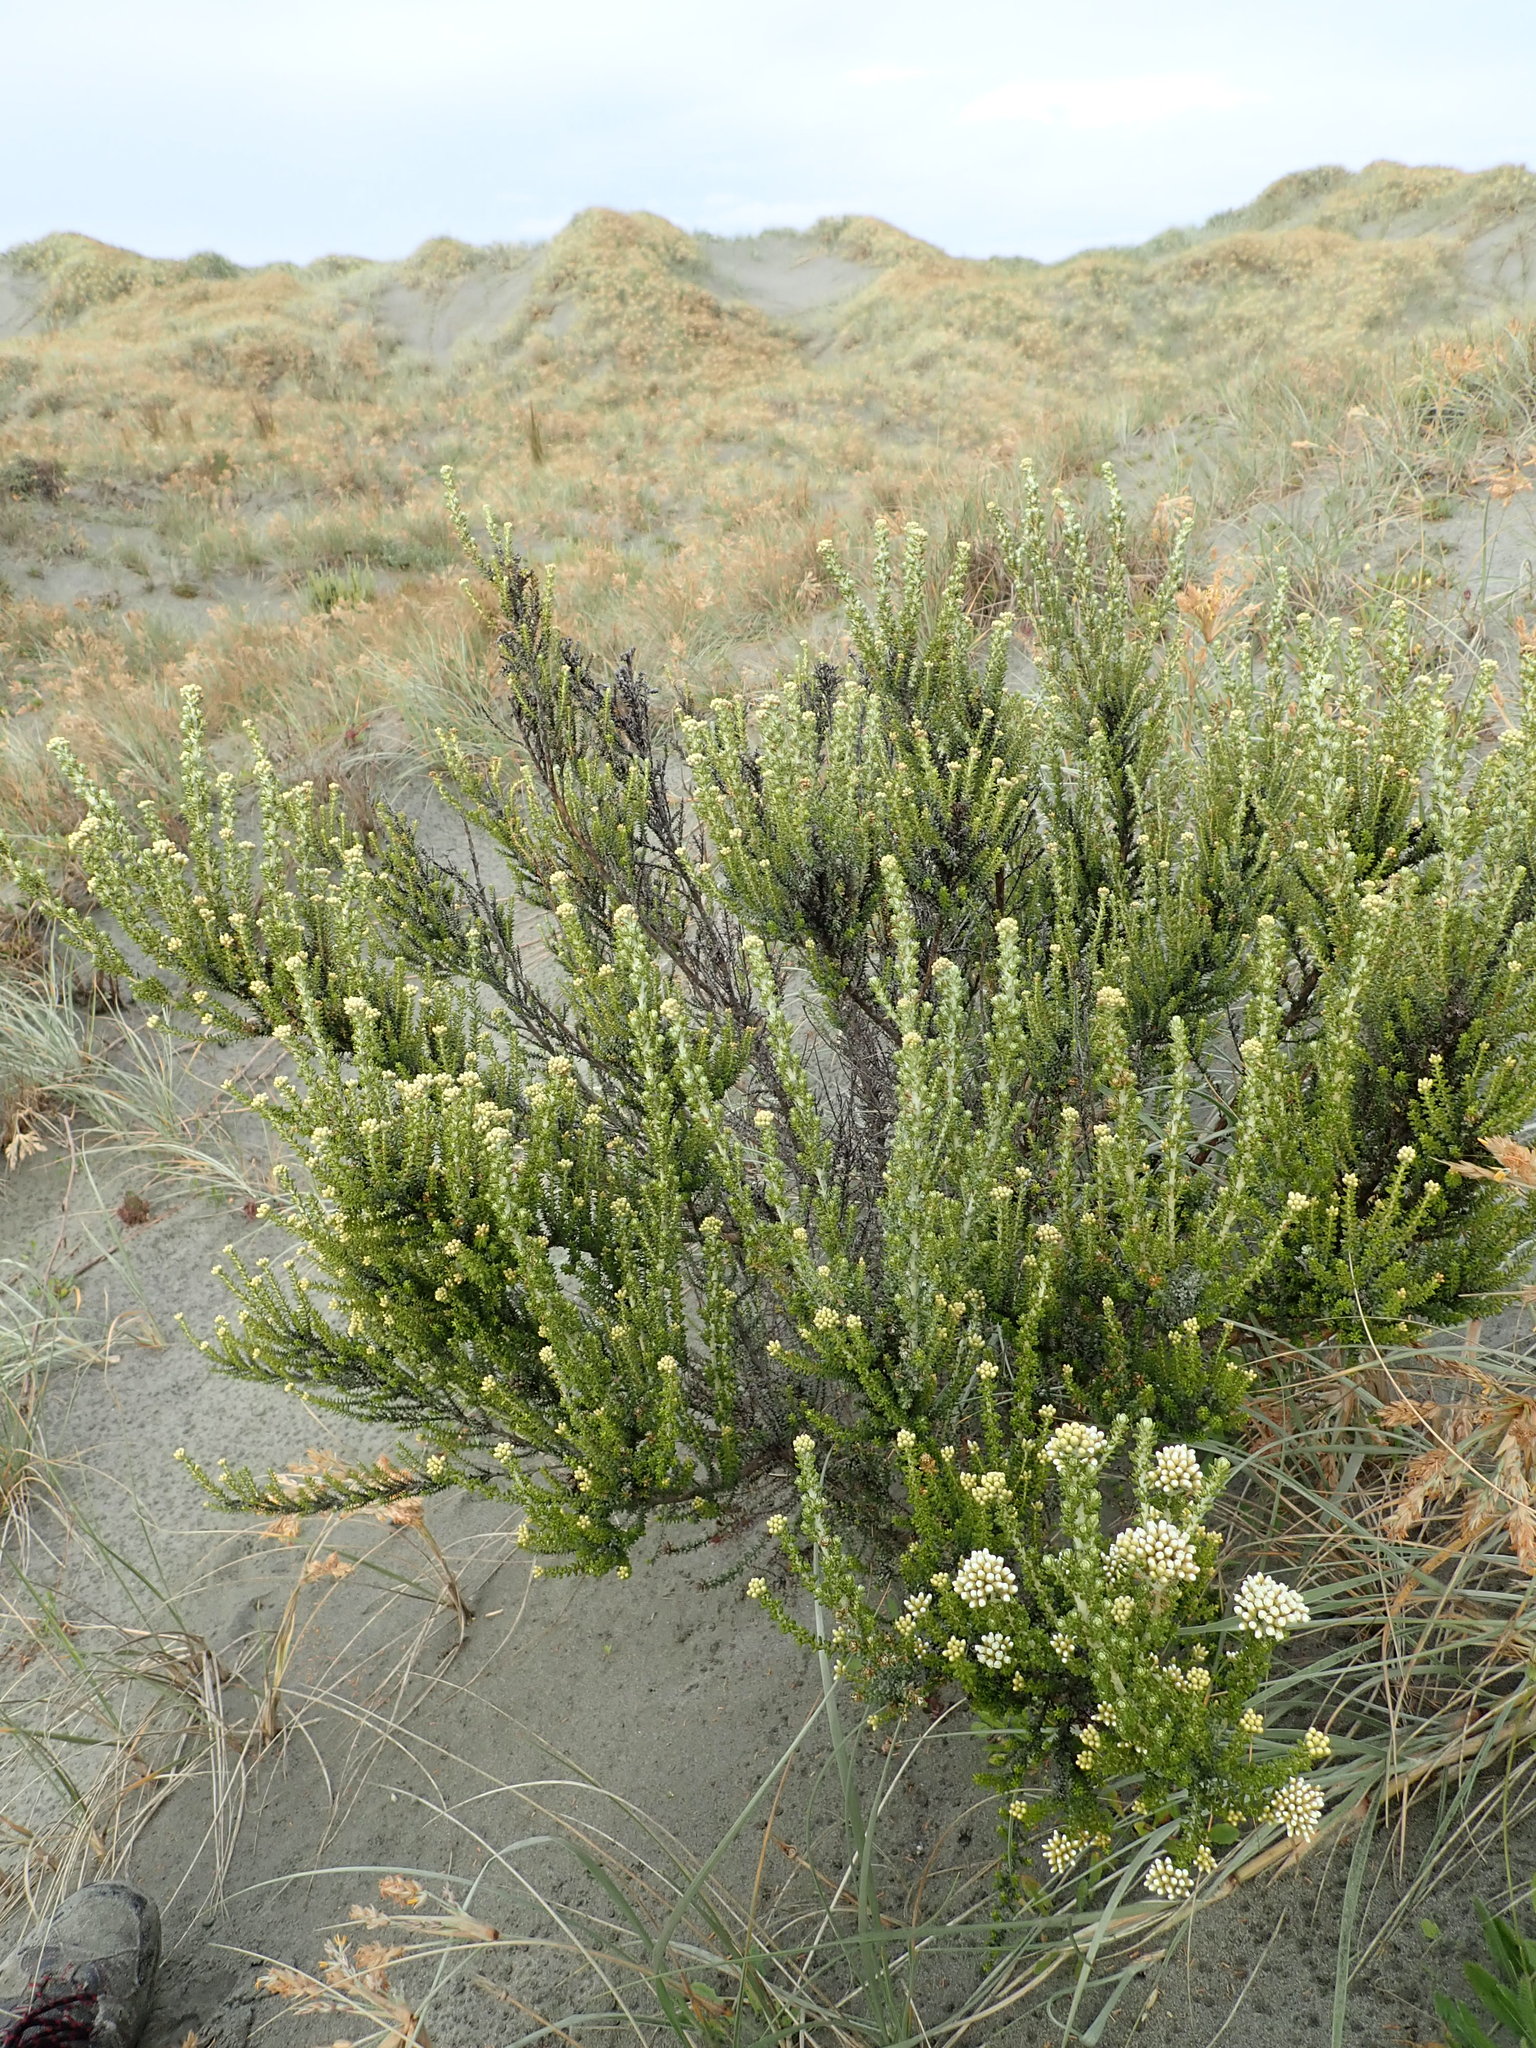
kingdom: Plantae
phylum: Tracheophyta
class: Magnoliopsida
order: Asterales
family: Asteraceae
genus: Ozothamnus
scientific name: Ozothamnus leptophyllus
